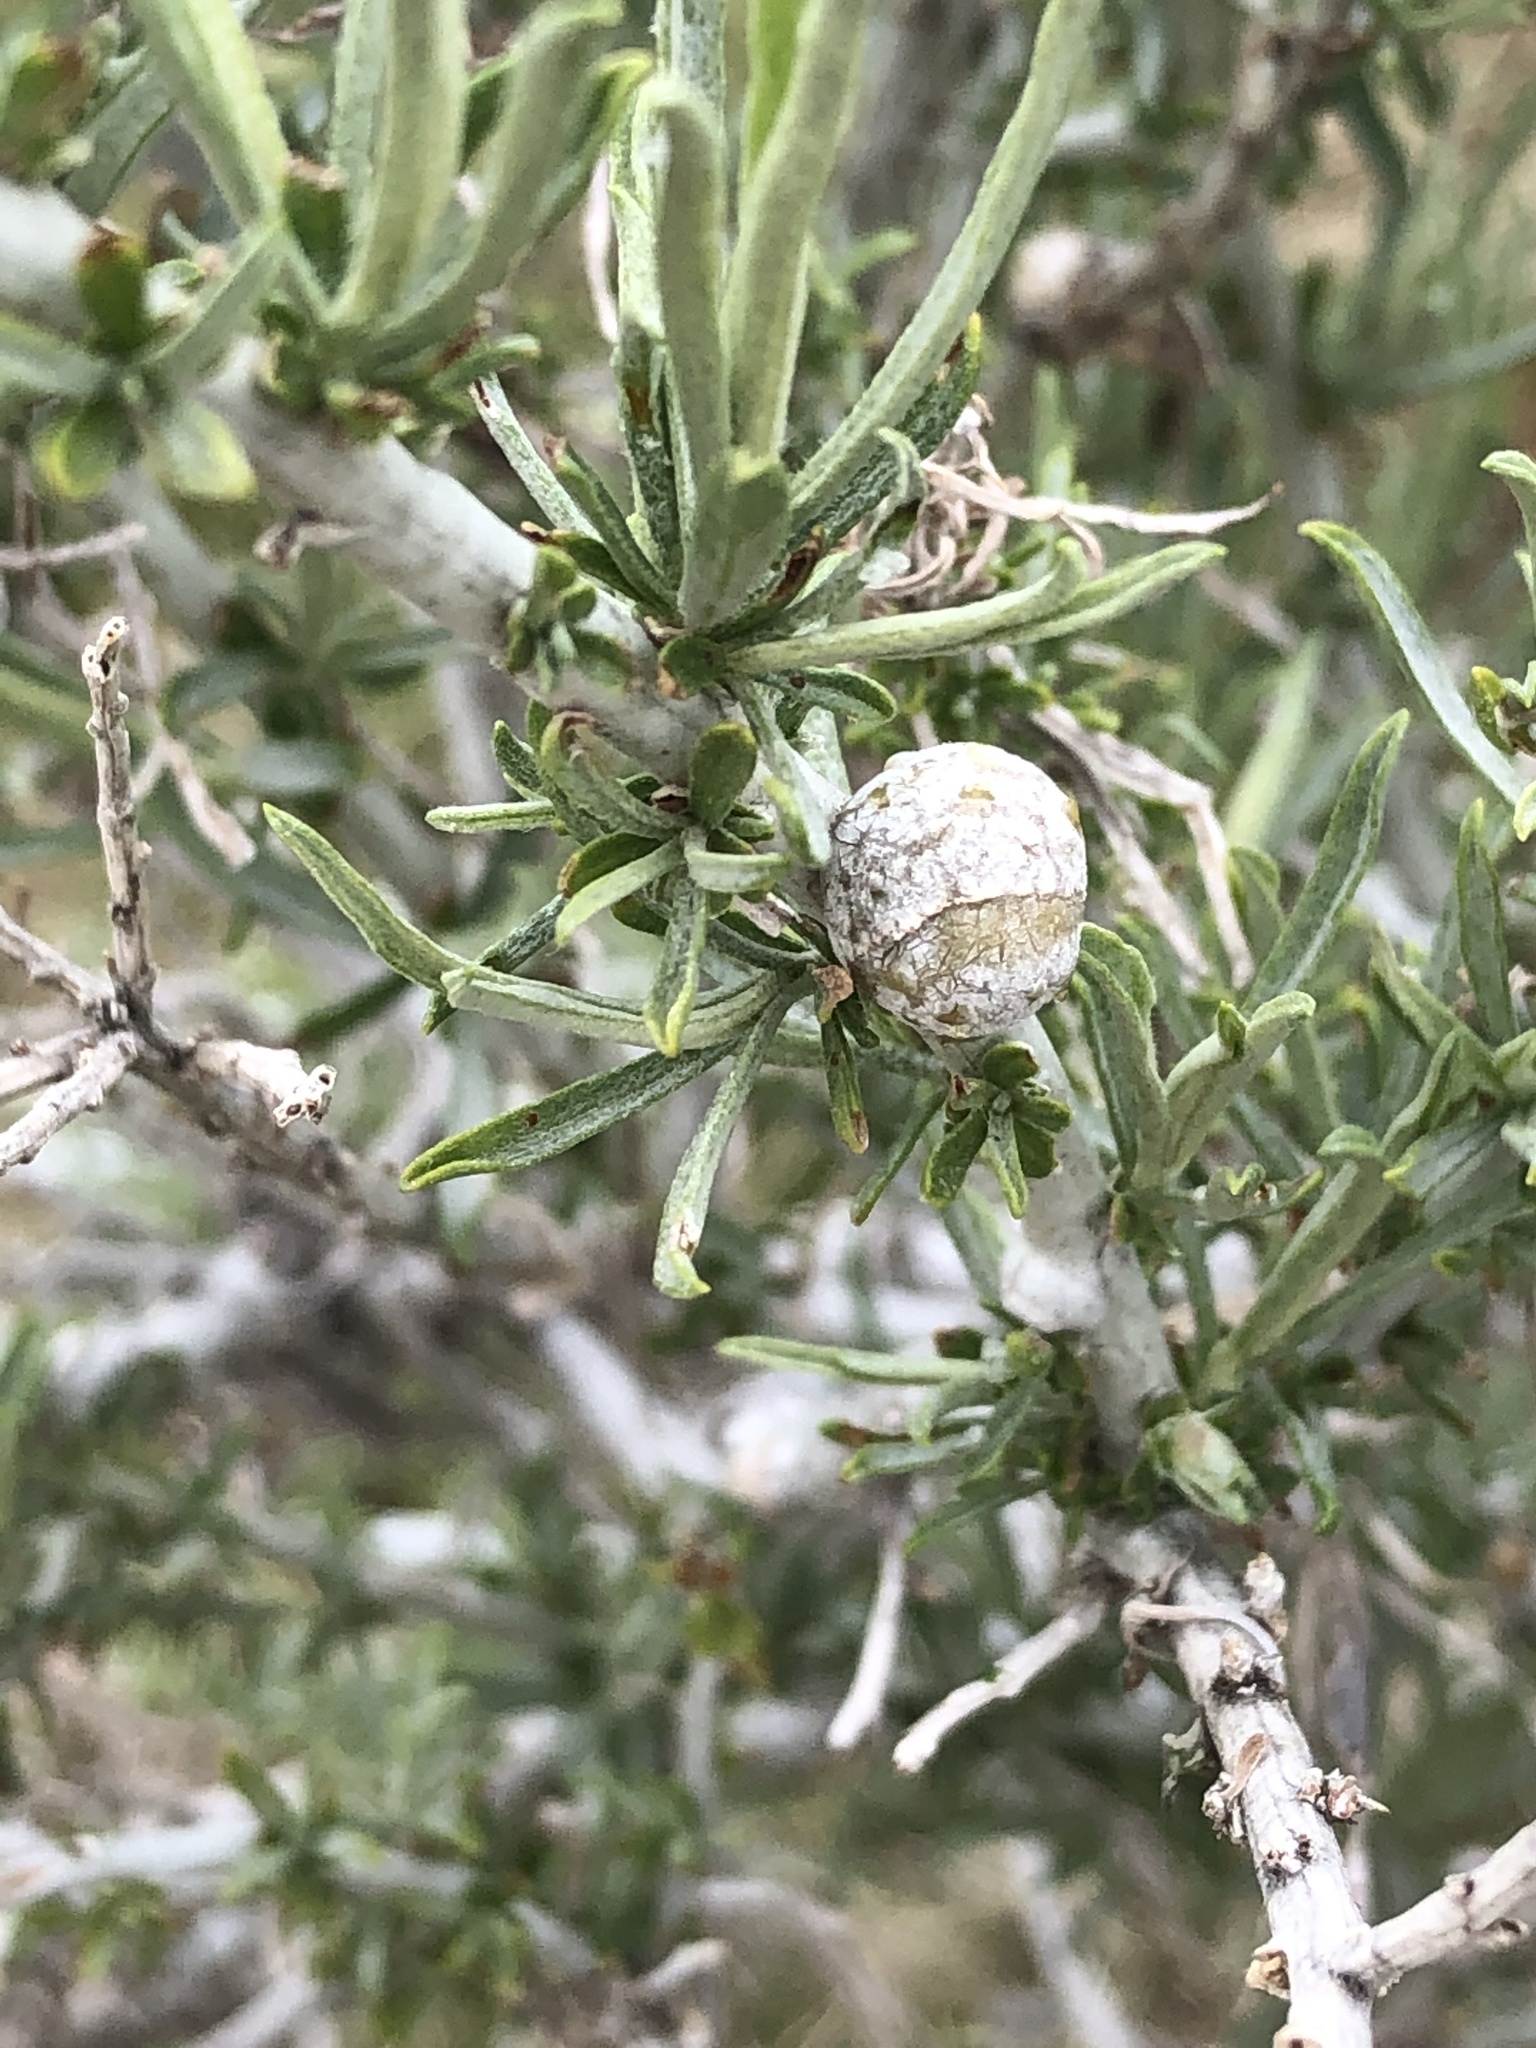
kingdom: Plantae
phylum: Tracheophyta
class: Magnoliopsida
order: Asterales
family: Asteraceae
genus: Ericameria
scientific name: Ericameria nauseosa
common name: Rubber rabbitbrush
